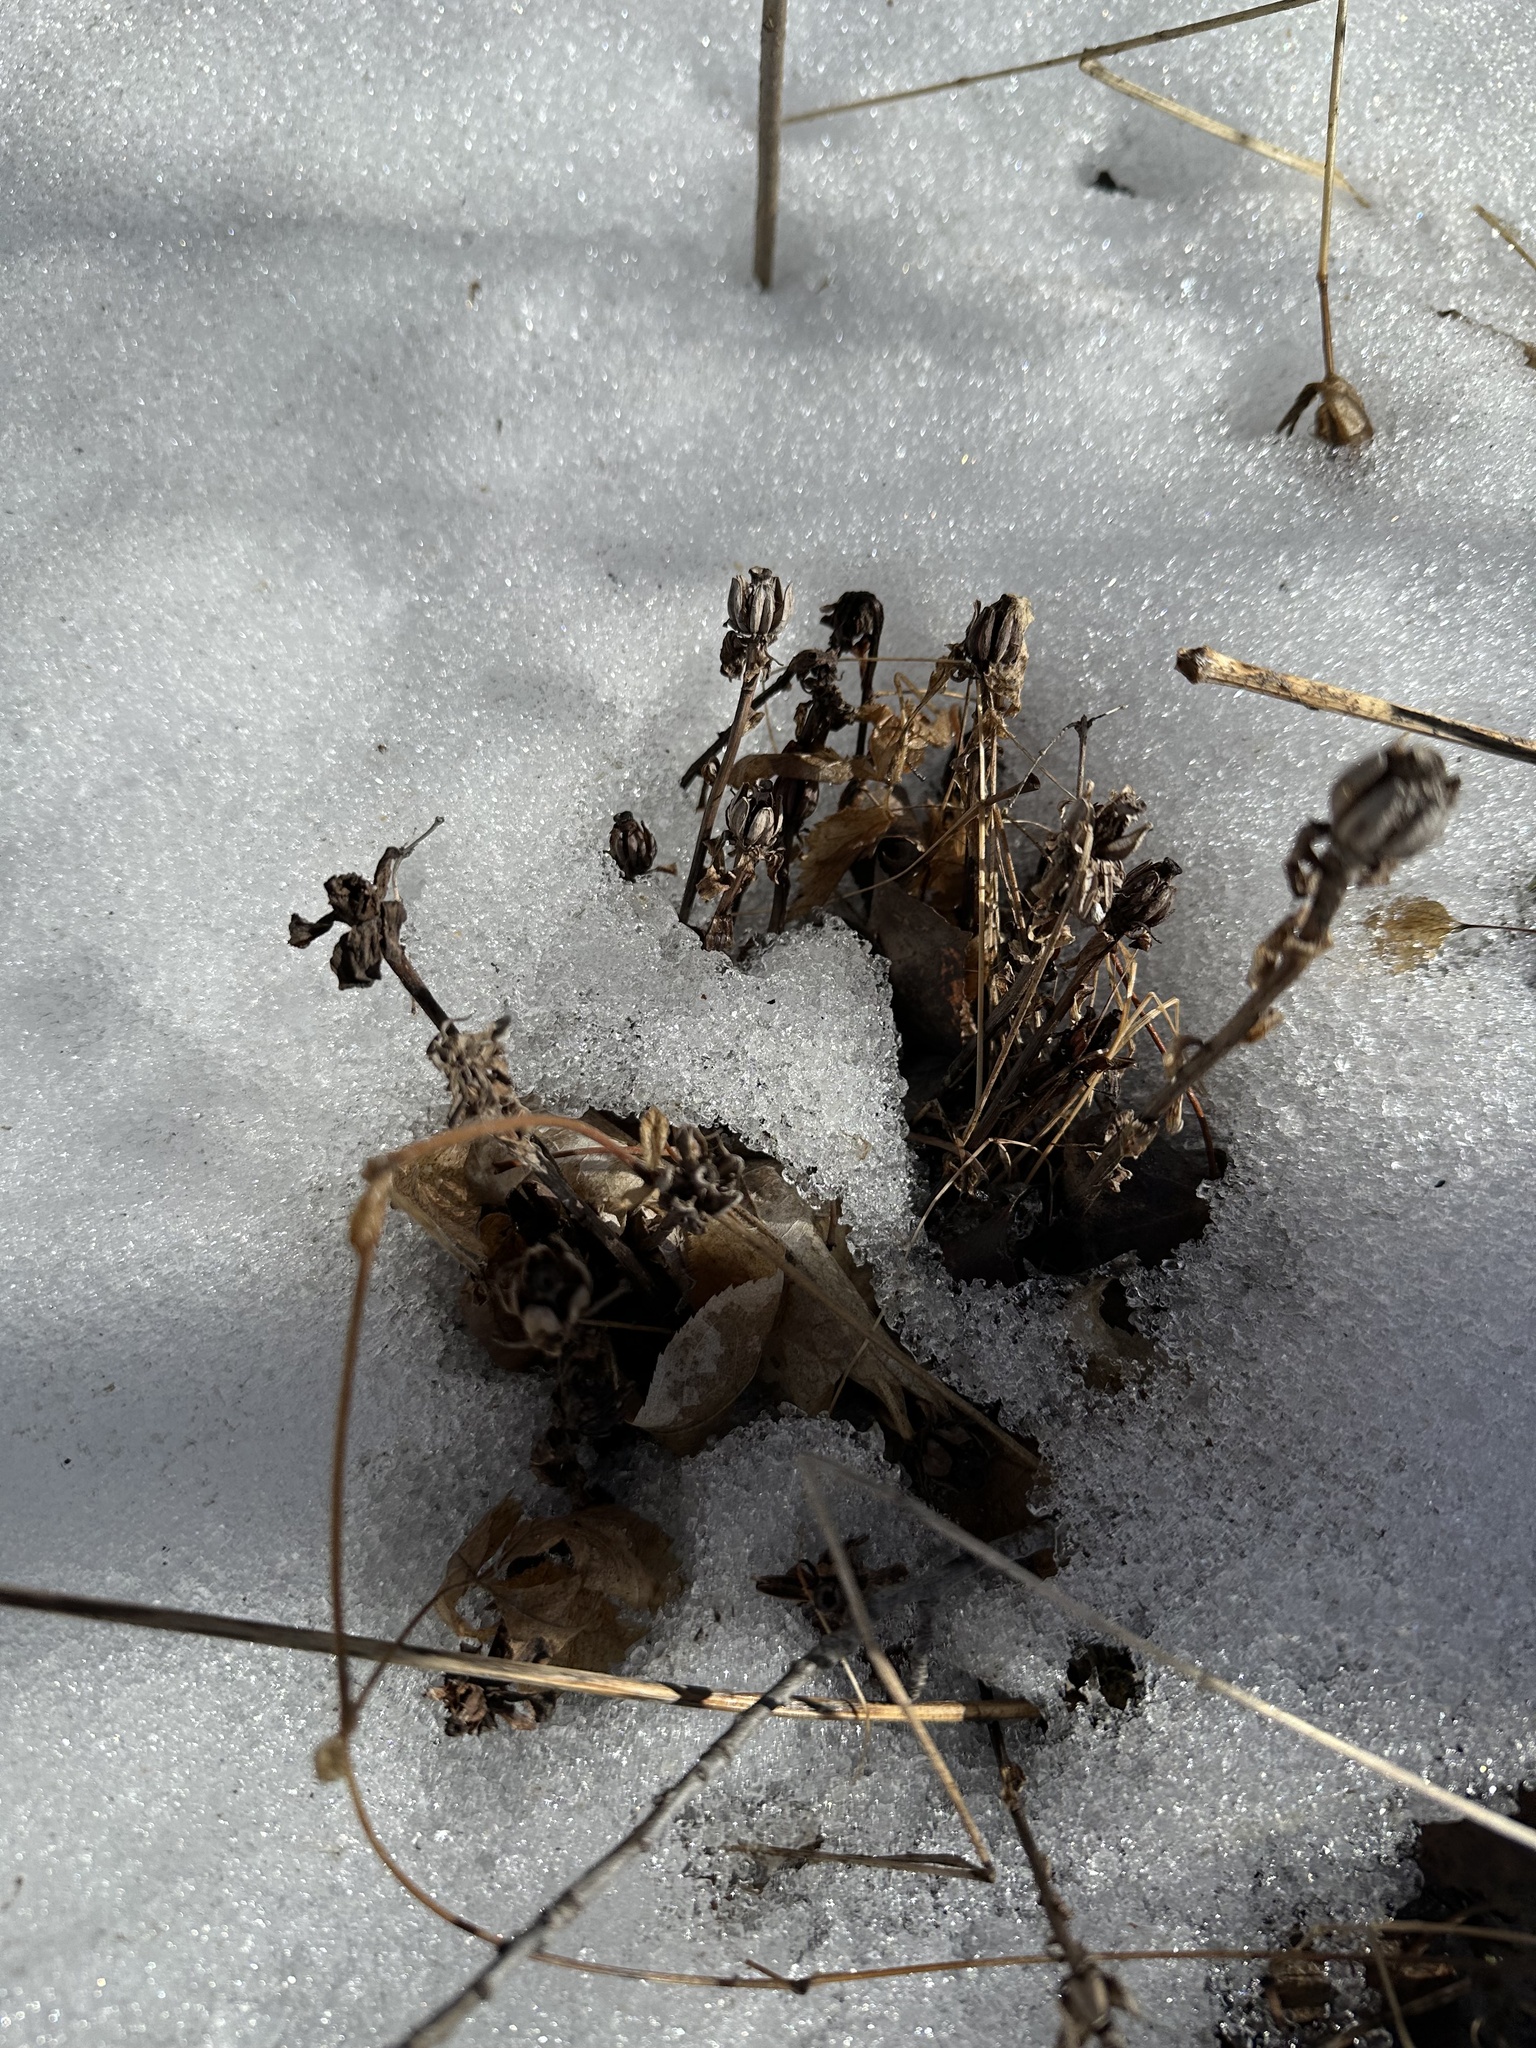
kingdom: Plantae
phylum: Tracheophyta
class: Magnoliopsida
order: Ericales
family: Ericaceae
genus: Monotropa
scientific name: Monotropa uniflora
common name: Convulsion root
